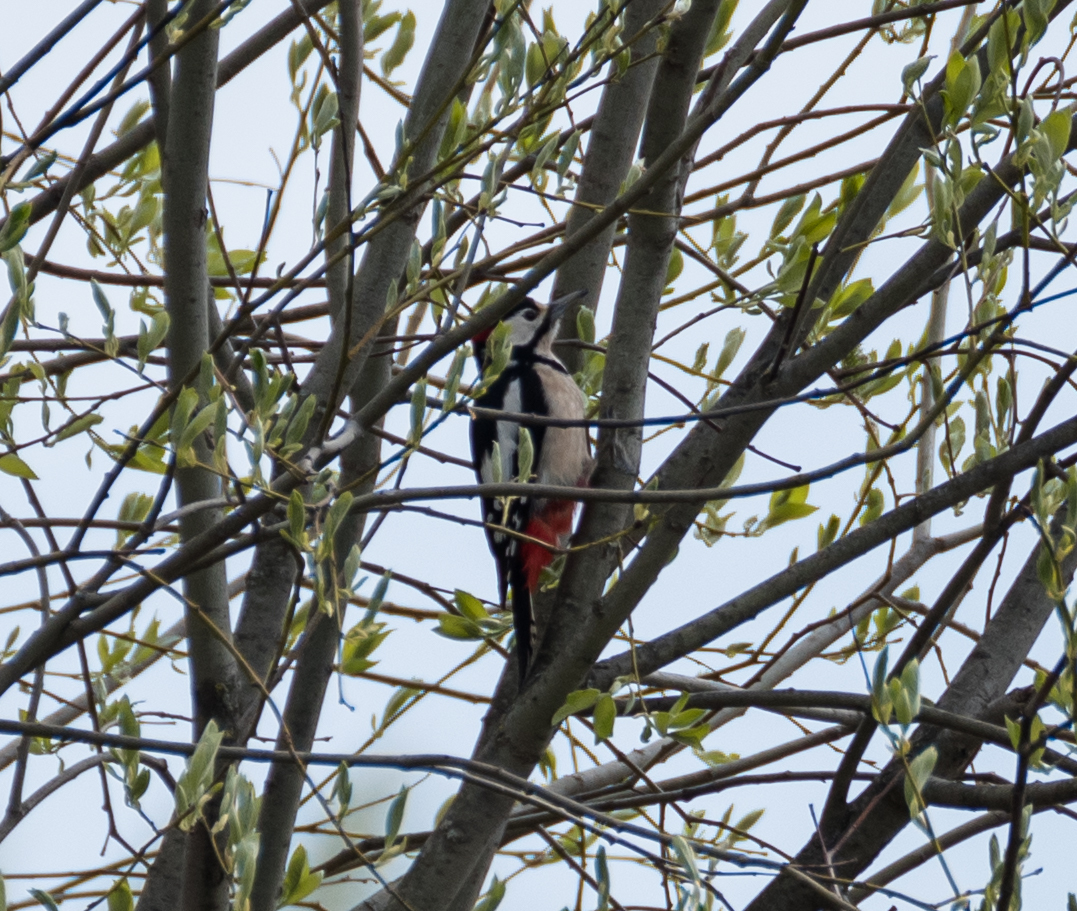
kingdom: Animalia
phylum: Chordata
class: Aves
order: Piciformes
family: Picidae
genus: Dendrocopos
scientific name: Dendrocopos major
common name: Great spotted woodpecker
